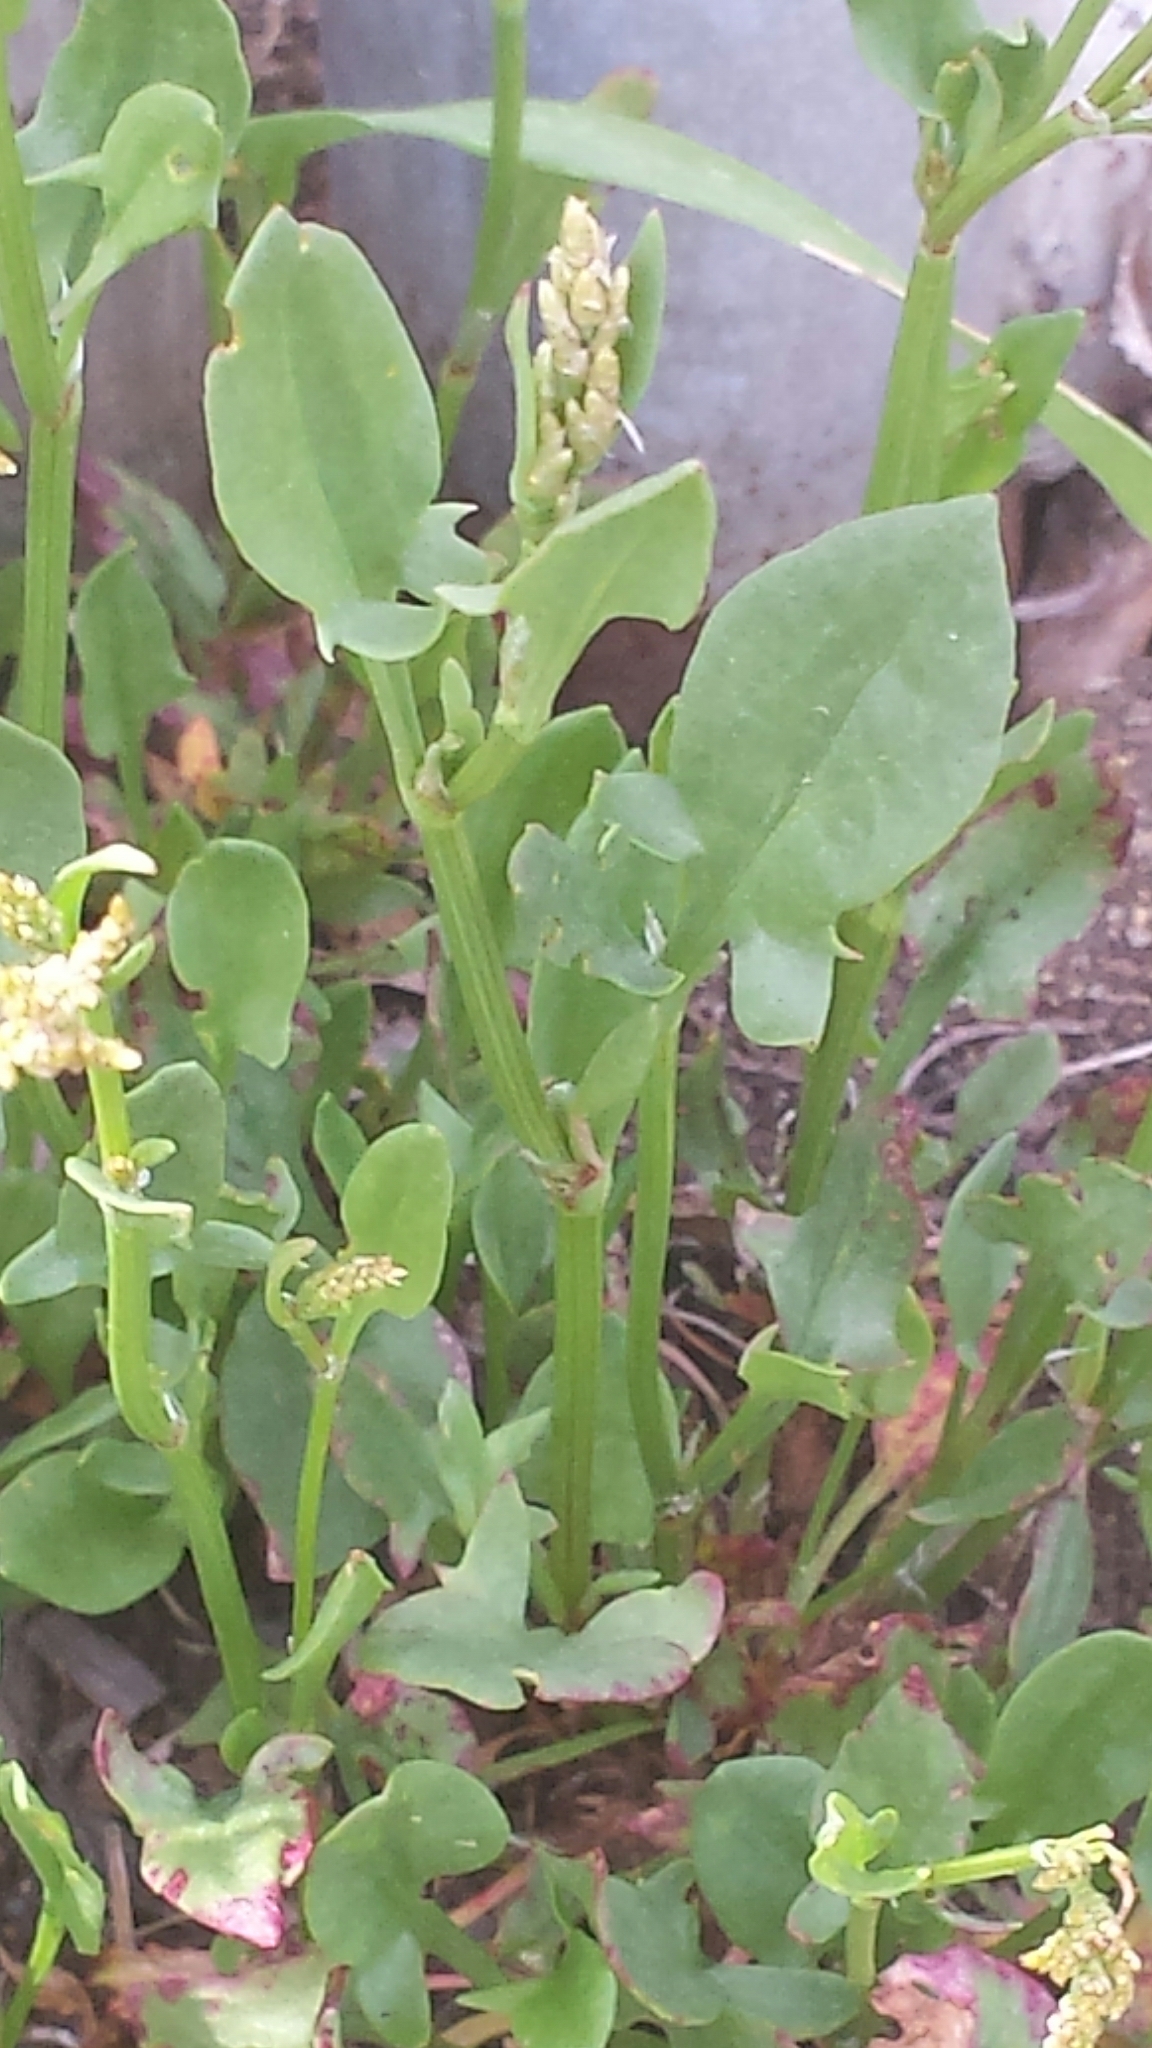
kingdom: Plantae
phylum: Tracheophyta
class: Magnoliopsida
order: Caryophyllales
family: Polygonaceae
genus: Rumex
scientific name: Rumex acetosella
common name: Common sheep sorrel
